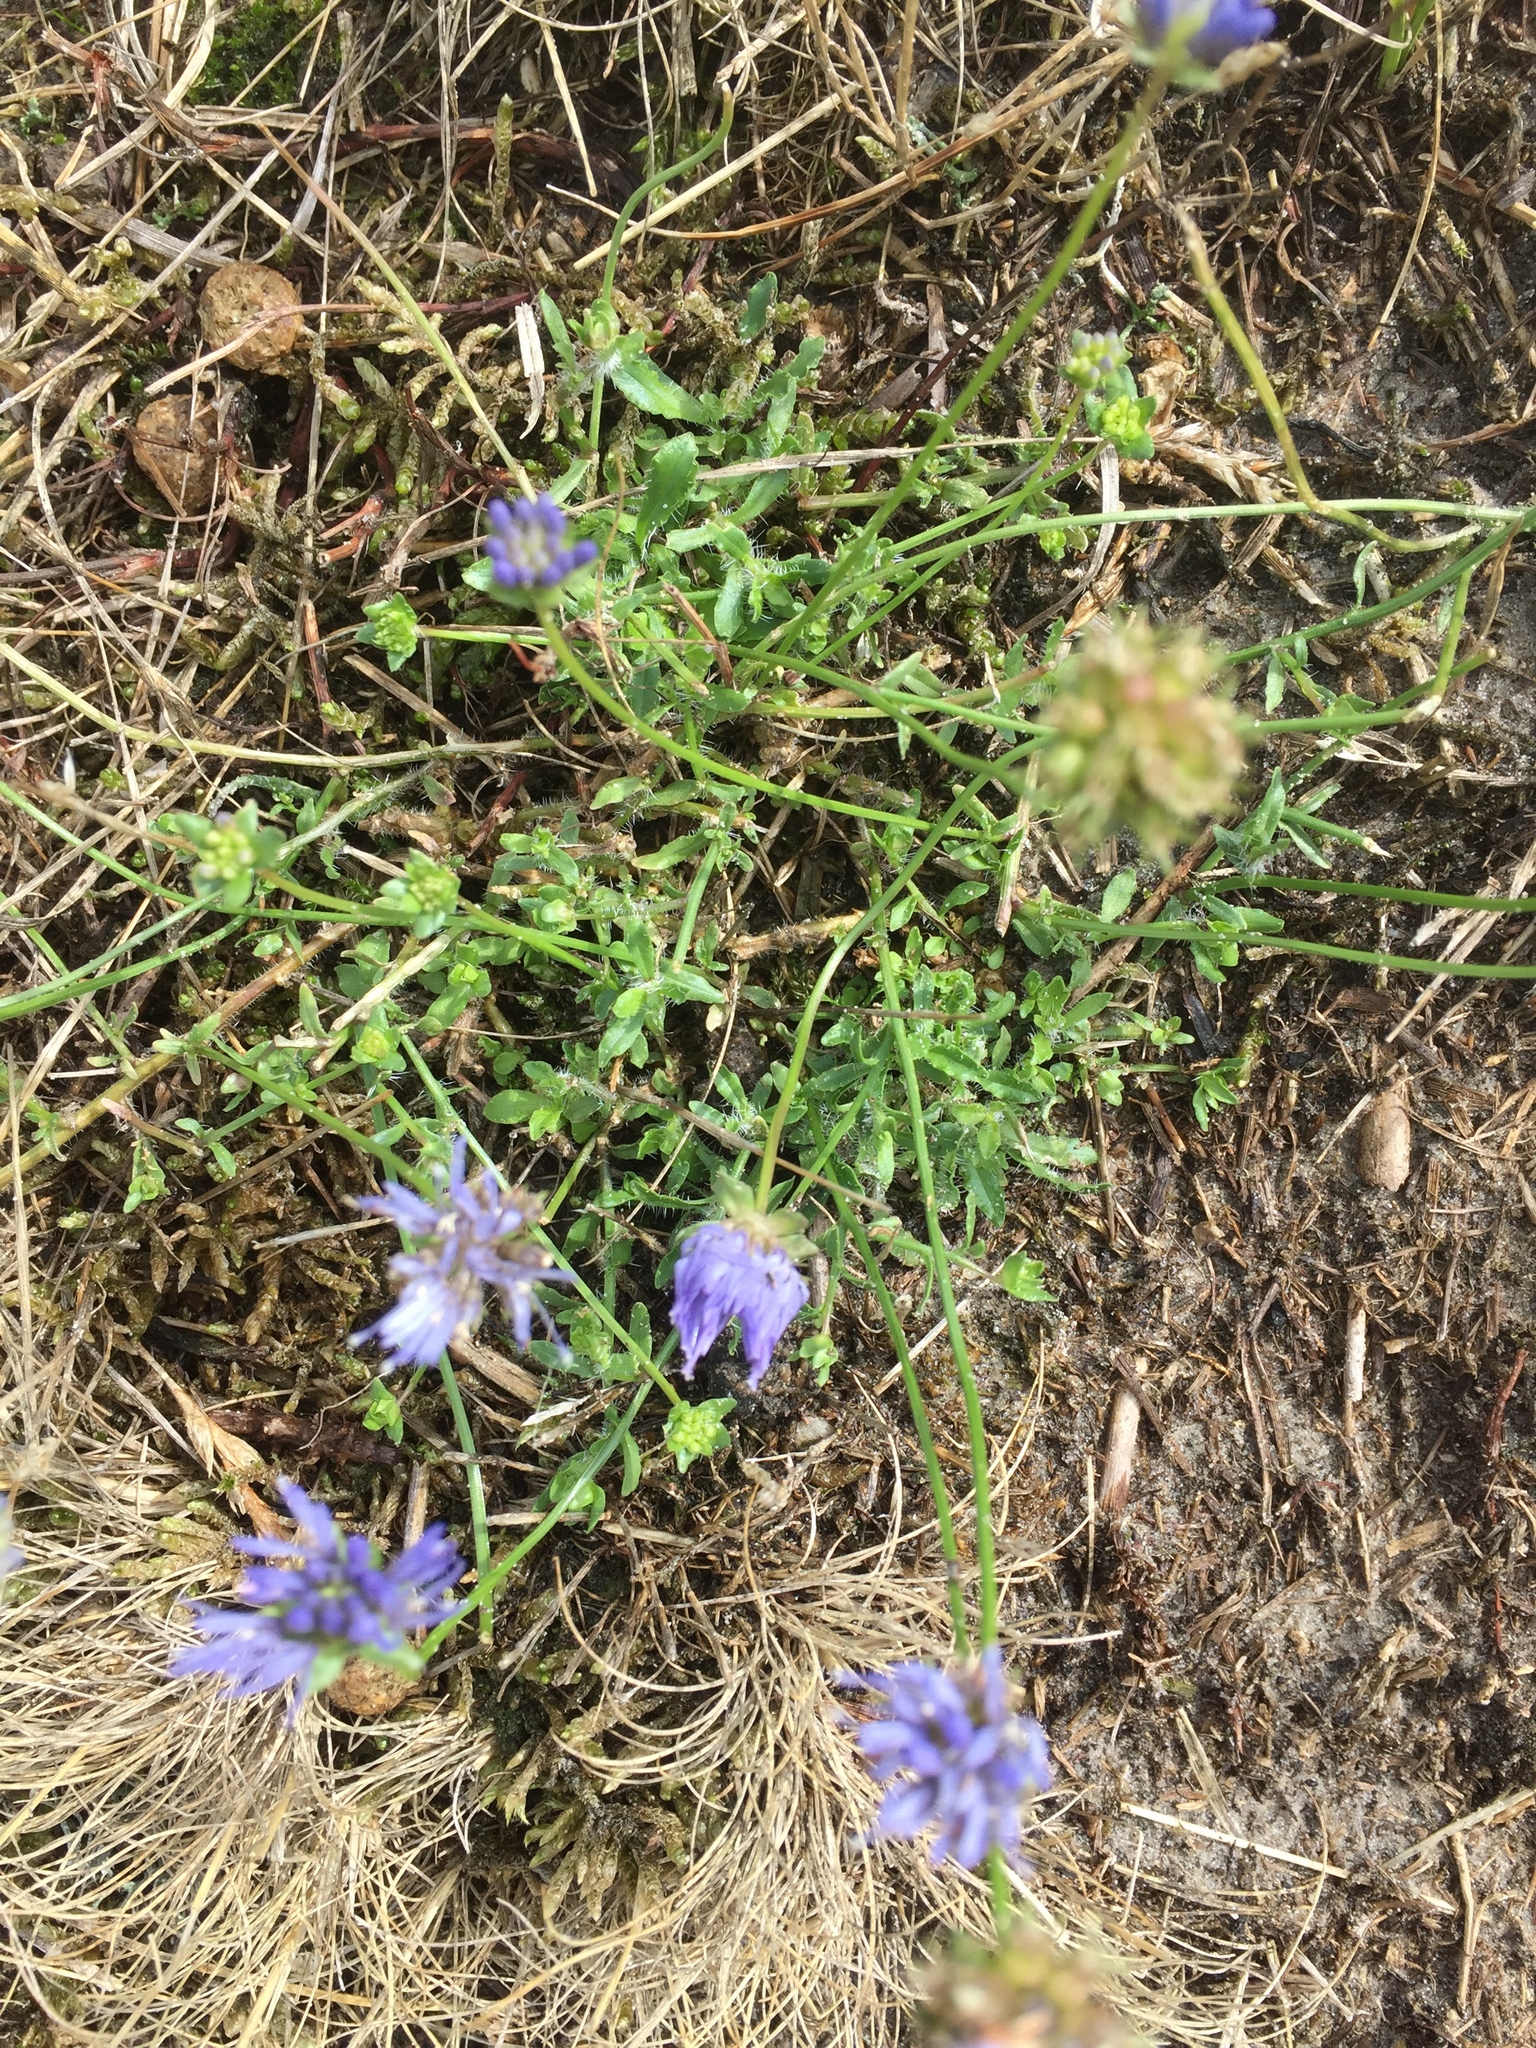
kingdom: Plantae
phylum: Tracheophyta
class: Magnoliopsida
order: Asterales
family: Campanulaceae
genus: Jasione
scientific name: Jasione montana
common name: Sheep's-bit
